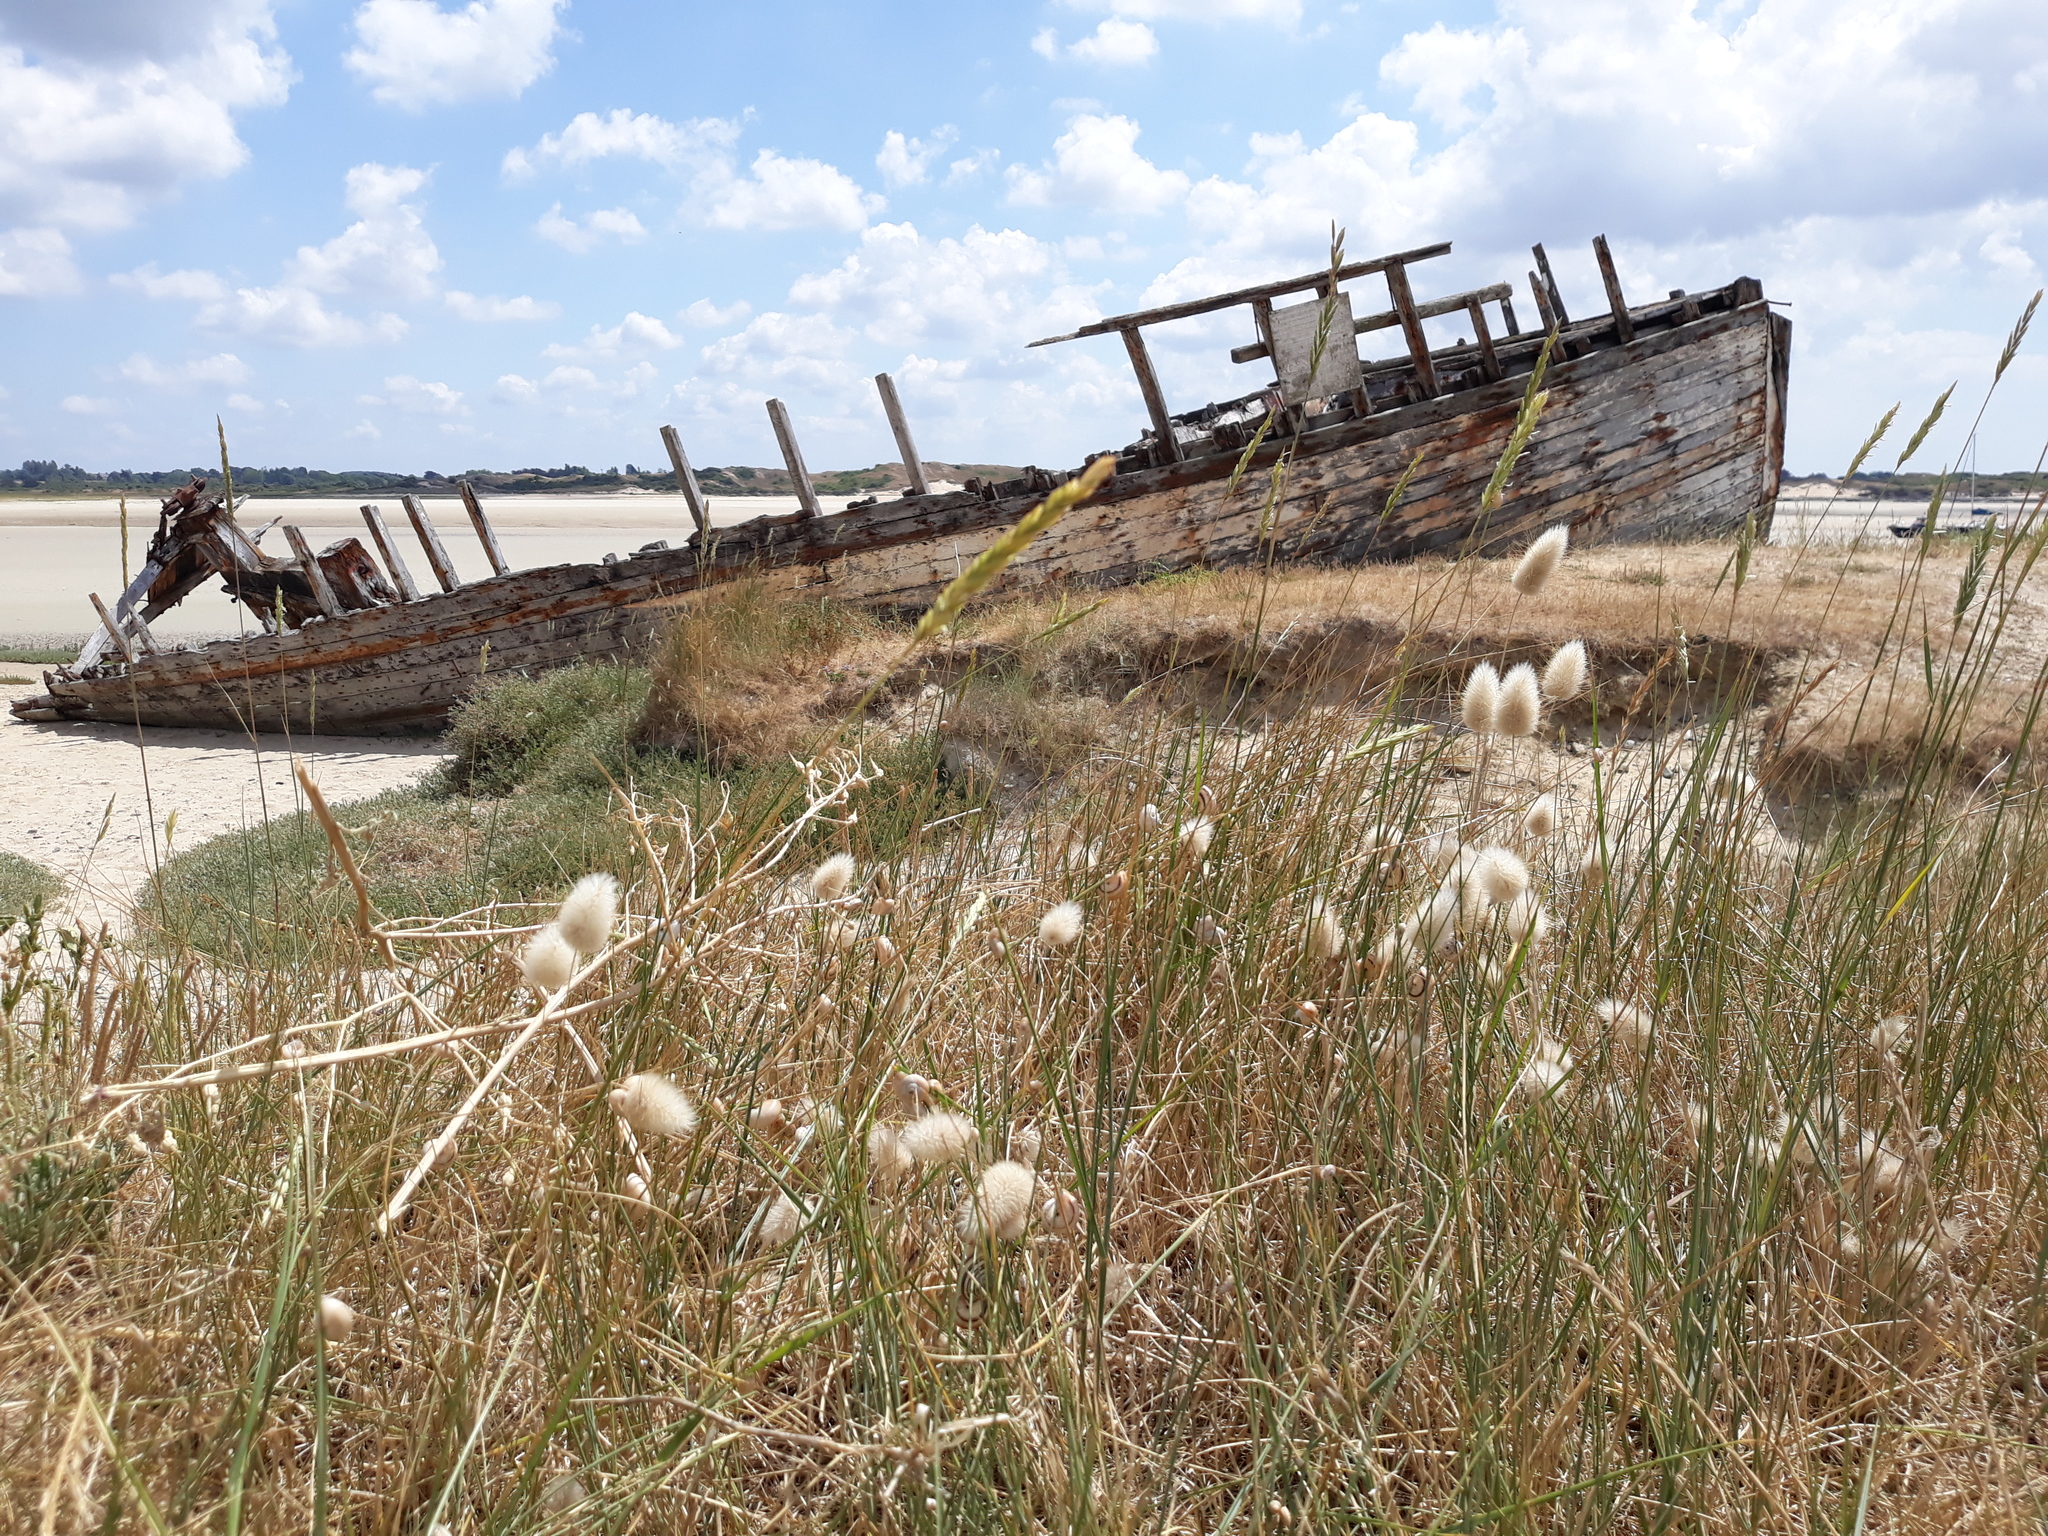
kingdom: Plantae
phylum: Tracheophyta
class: Liliopsida
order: Poales
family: Poaceae
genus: Lagurus
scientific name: Lagurus ovatus
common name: Hare's-tail
